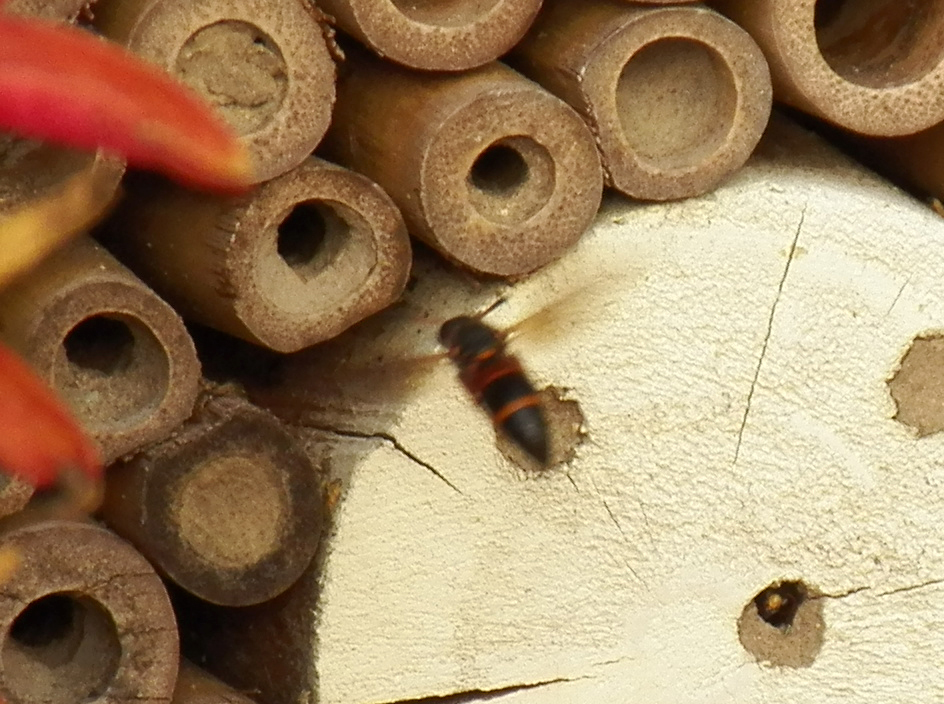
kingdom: Animalia
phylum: Arthropoda
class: Insecta
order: Hymenoptera
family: Eumenidae
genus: Pachodynerus
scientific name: Pachodynerus erynnis
